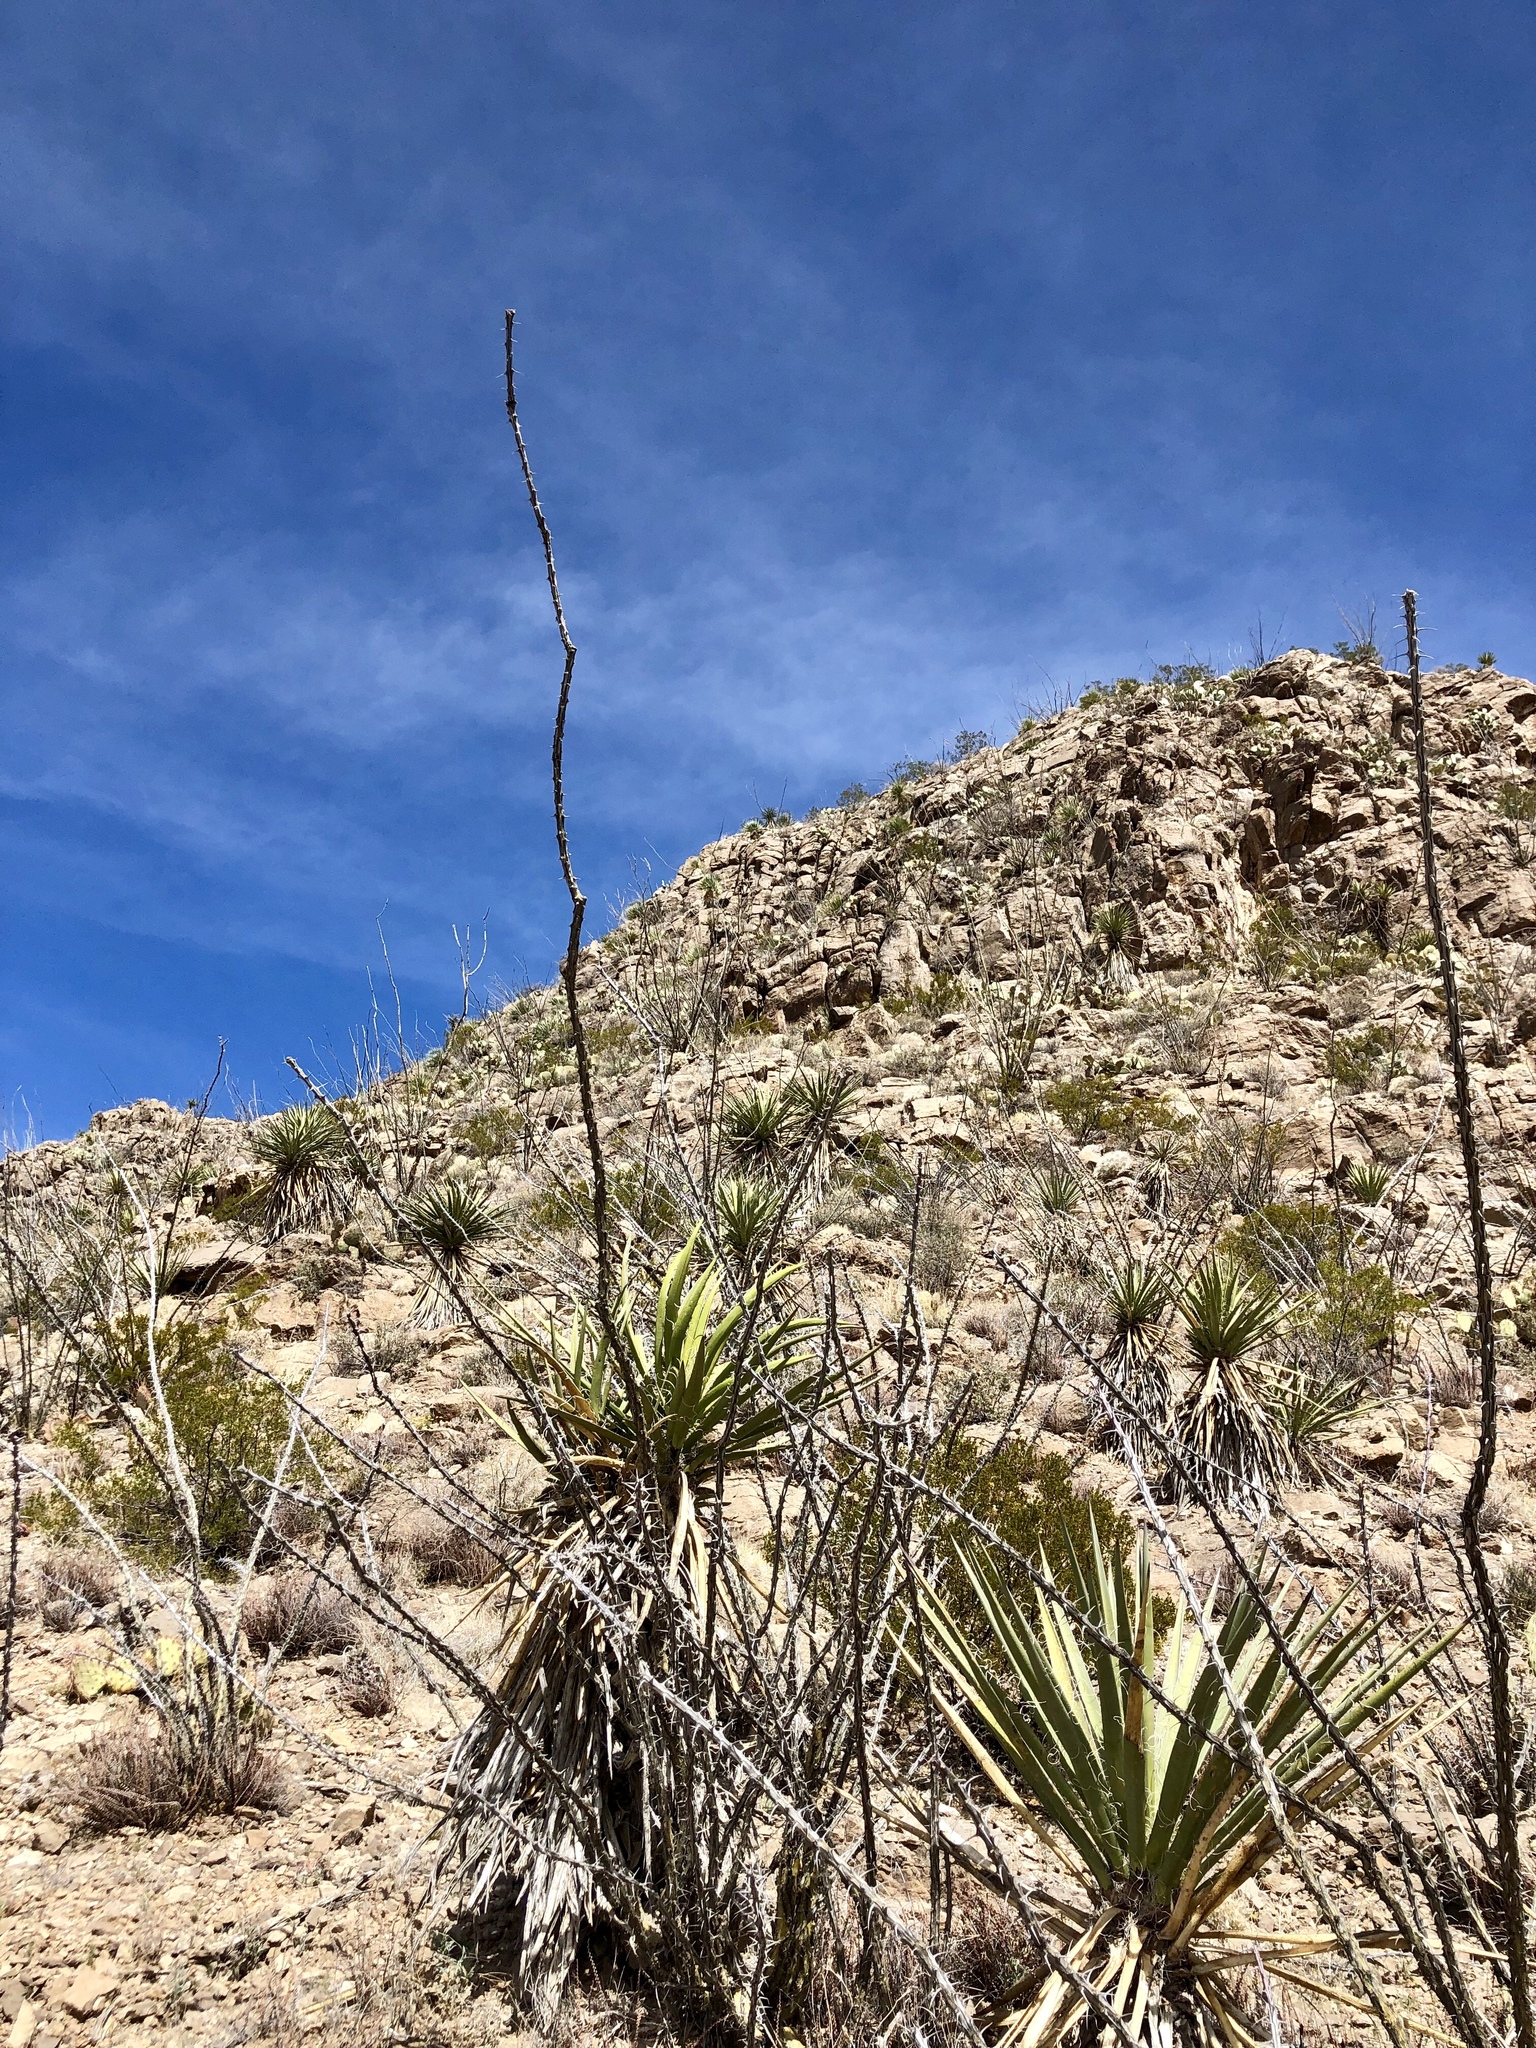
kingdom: Plantae
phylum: Tracheophyta
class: Magnoliopsida
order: Ericales
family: Fouquieriaceae
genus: Fouquieria
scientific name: Fouquieria splendens
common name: Vine-cactus
